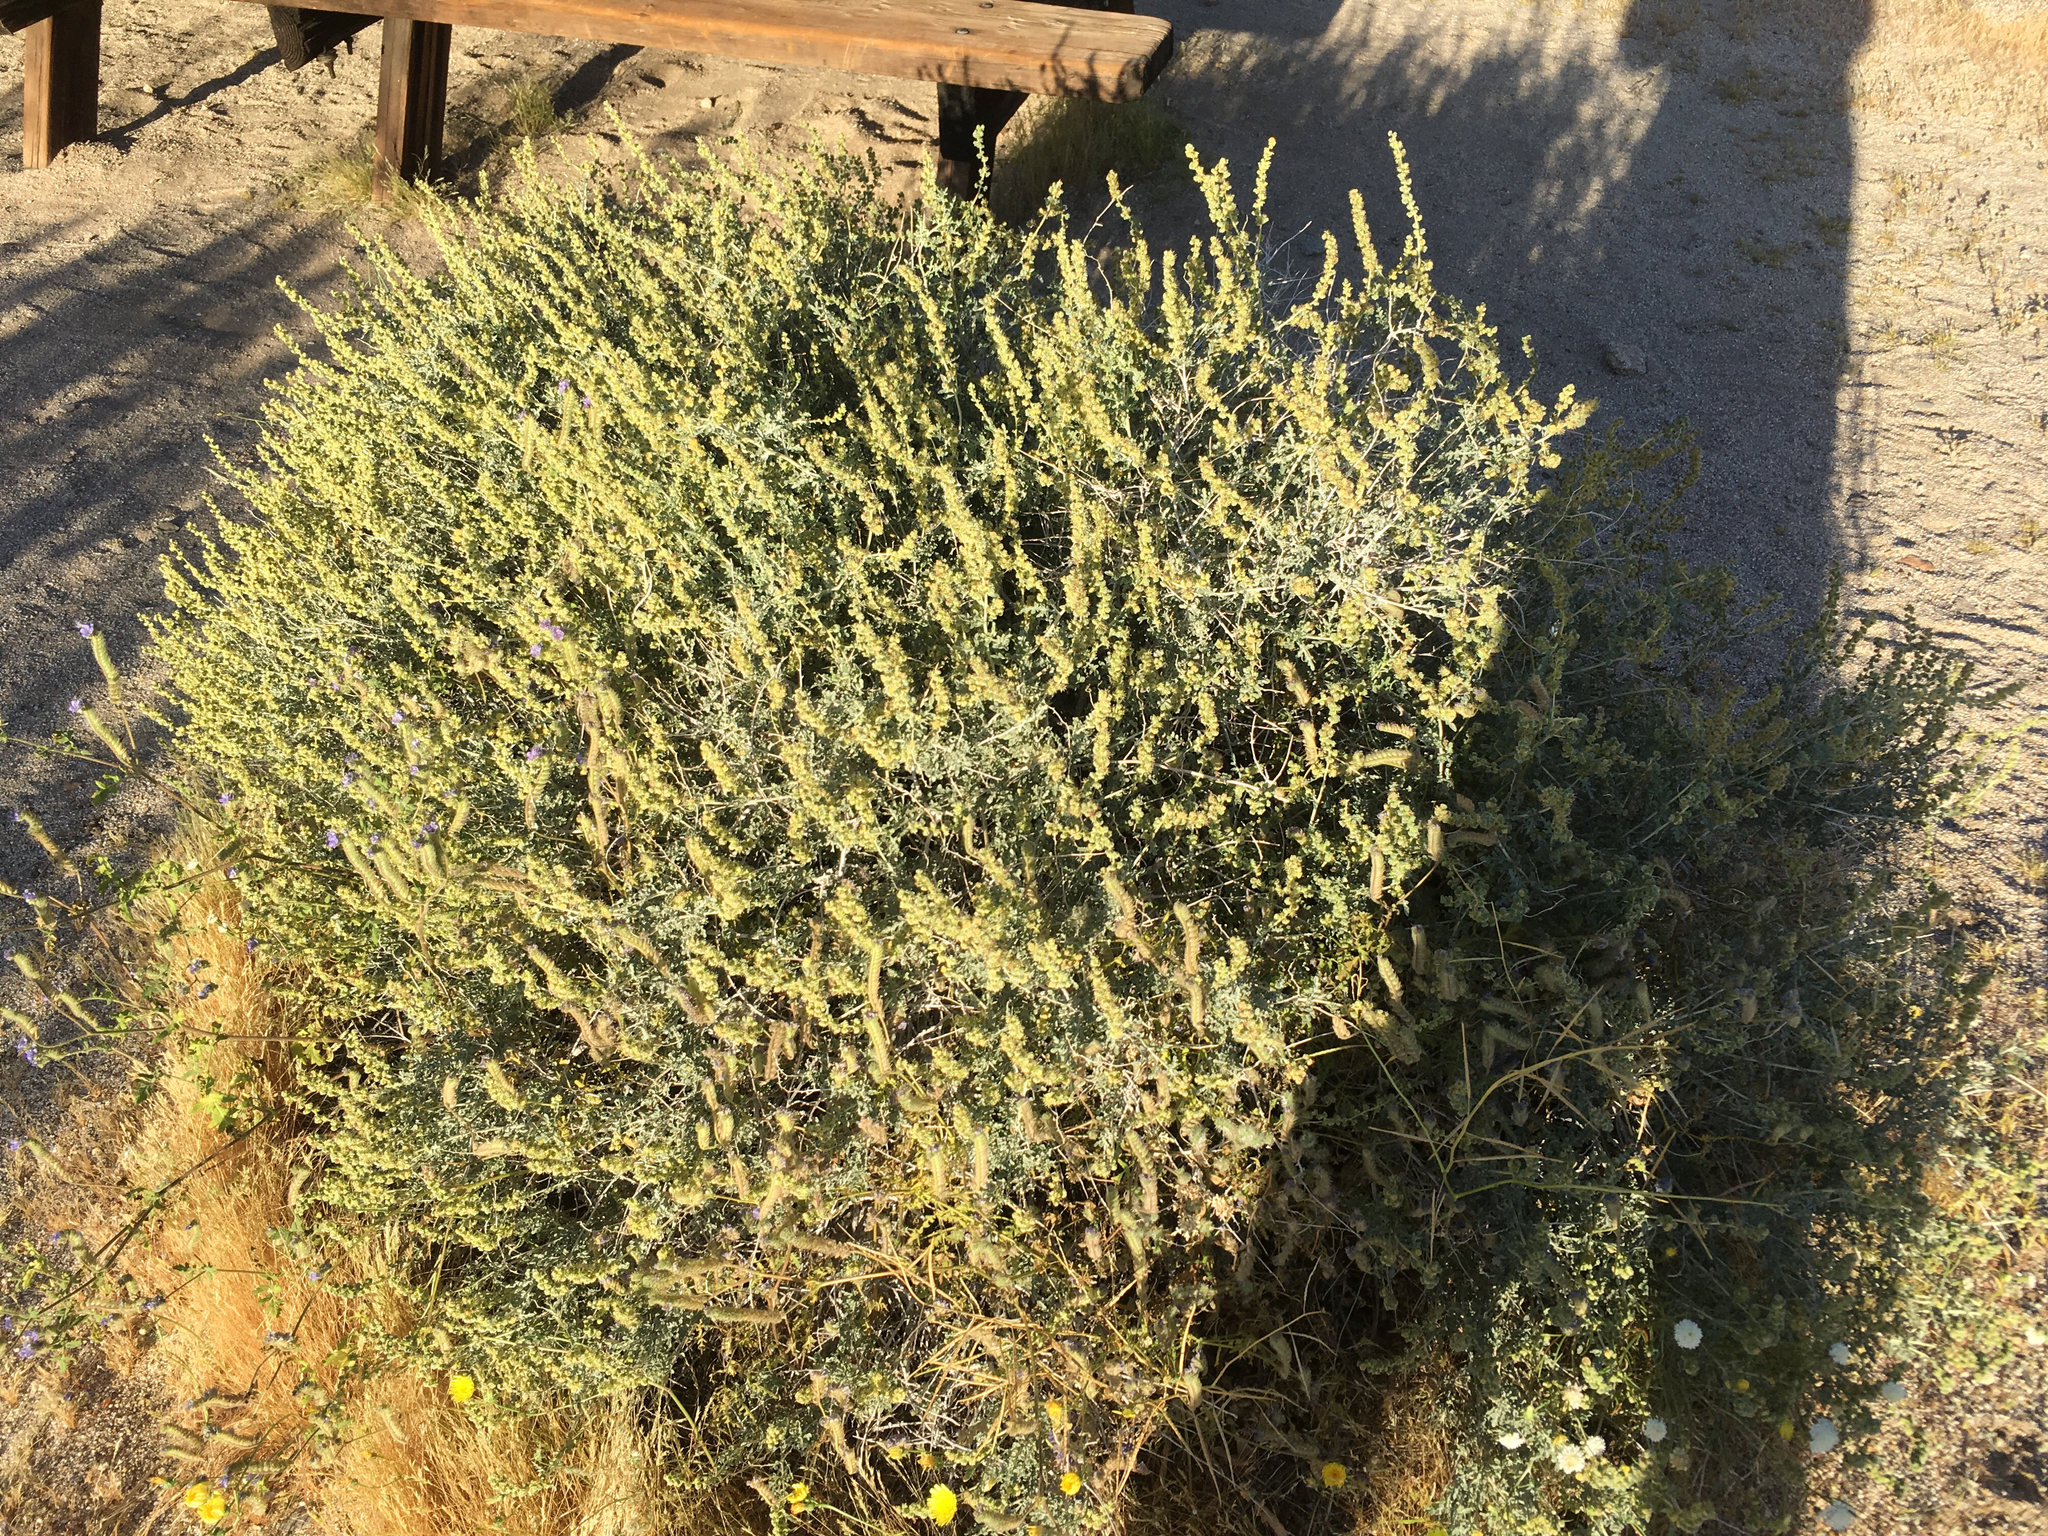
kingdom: Plantae
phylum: Tracheophyta
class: Magnoliopsida
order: Asterales
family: Asteraceae
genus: Ambrosia
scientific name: Ambrosia dumosa
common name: Bur-sage
